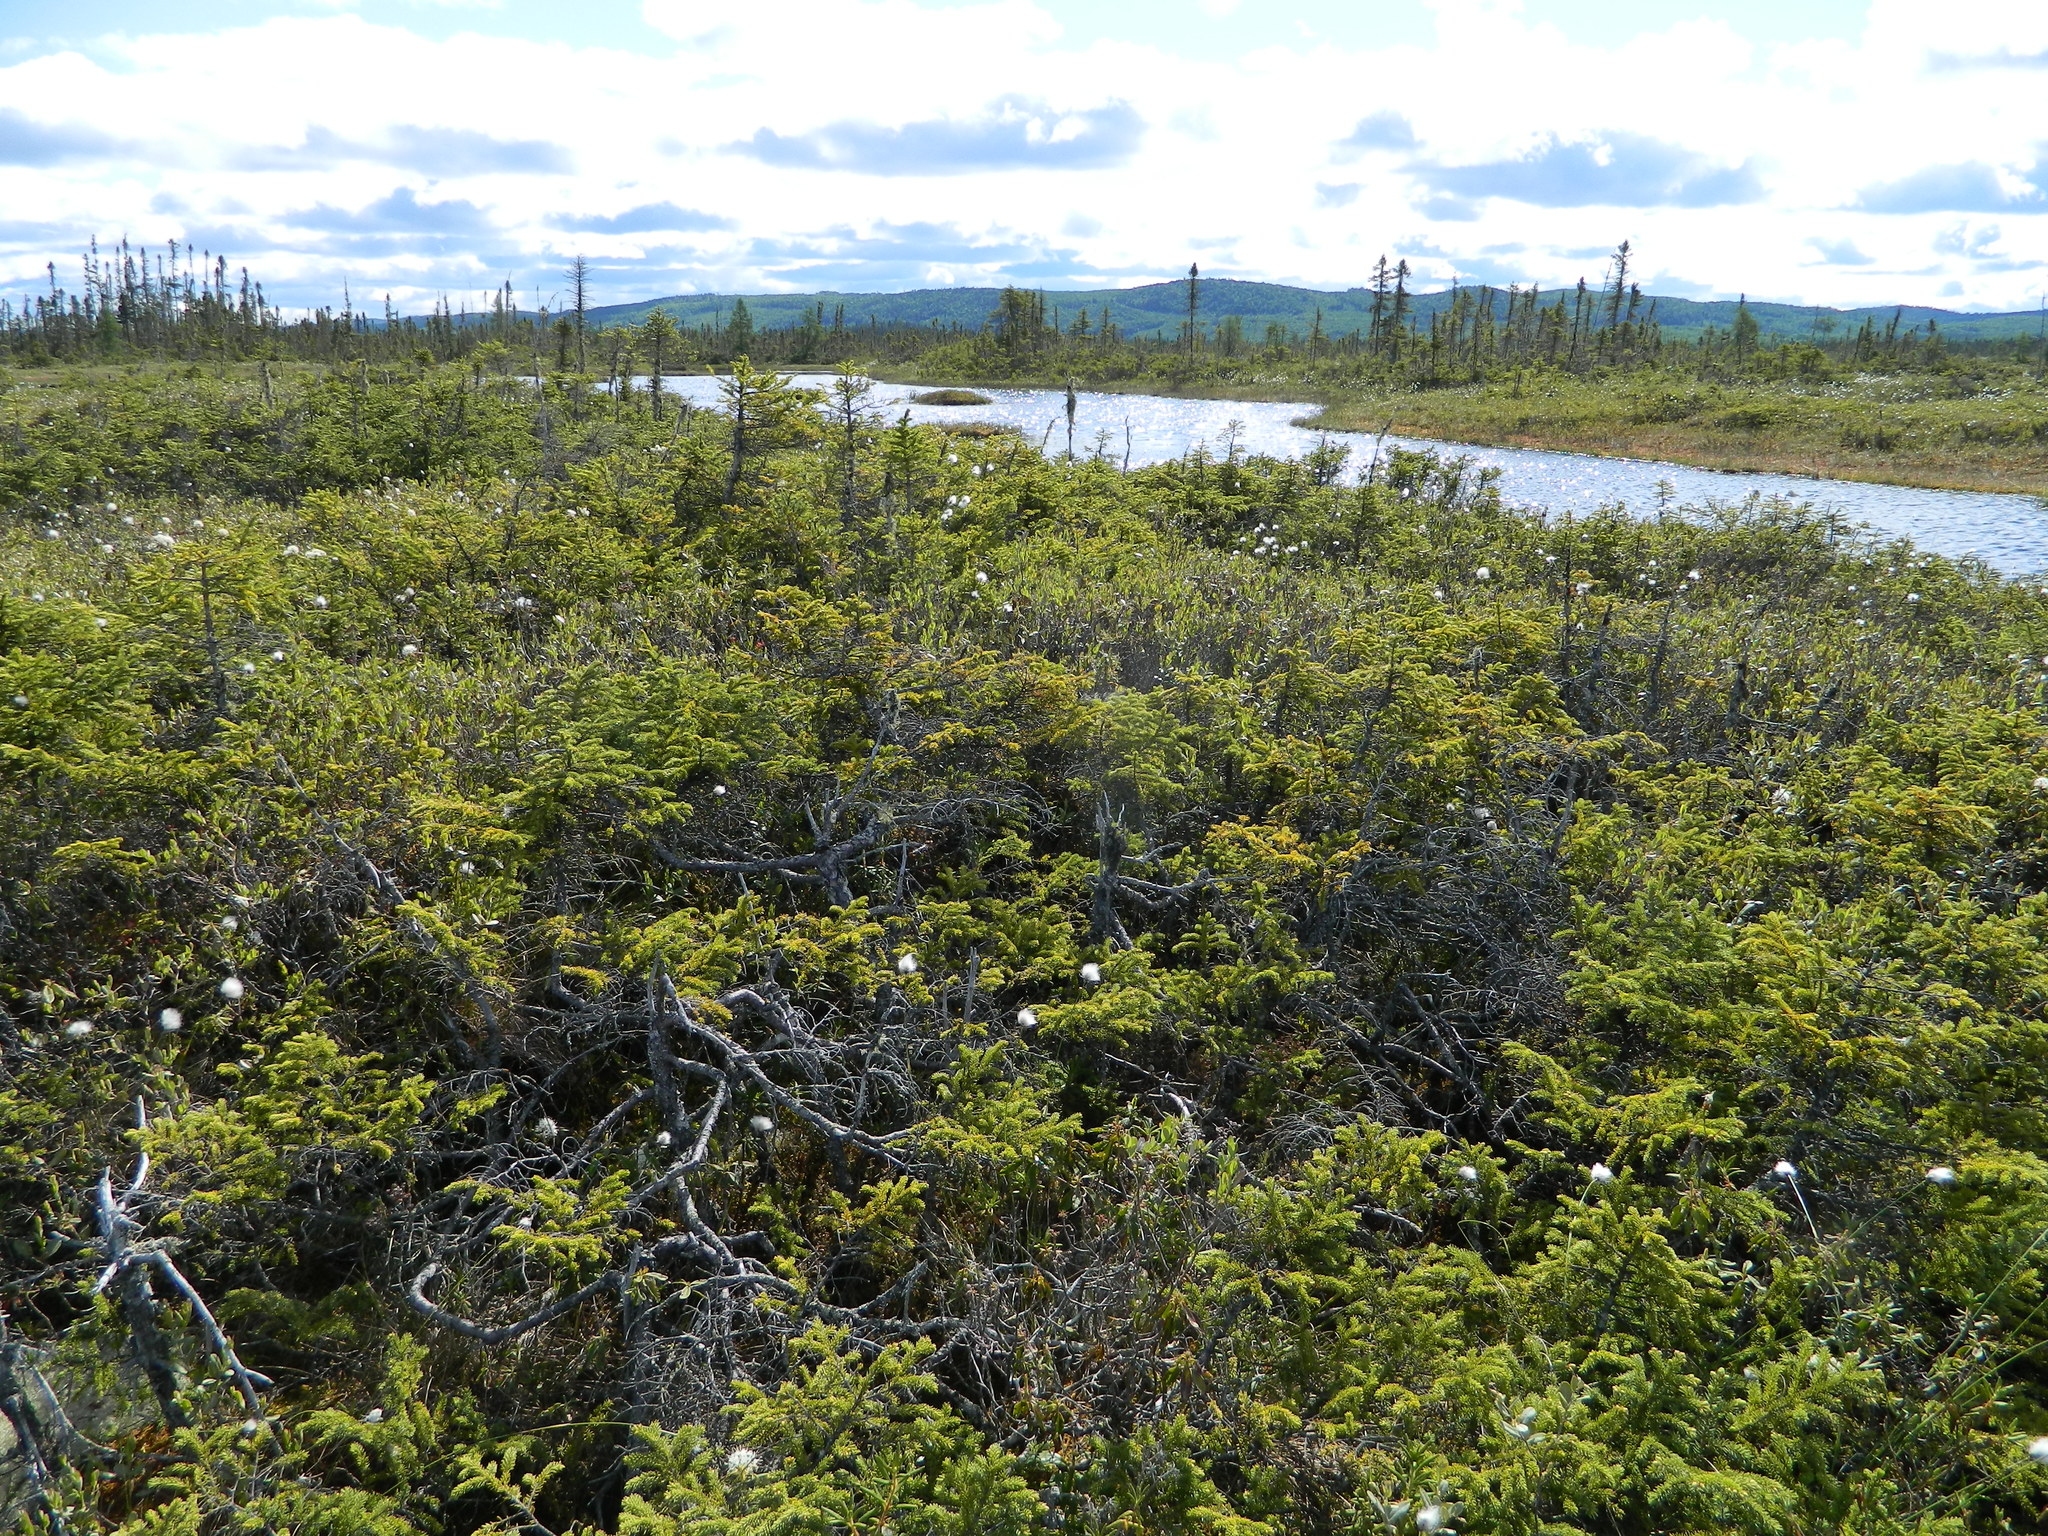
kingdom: Plantae
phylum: Tracheophyta
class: Pinopsida
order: Pinales
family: Pinaceae
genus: Picea
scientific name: Picea mariana
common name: Black spruce
